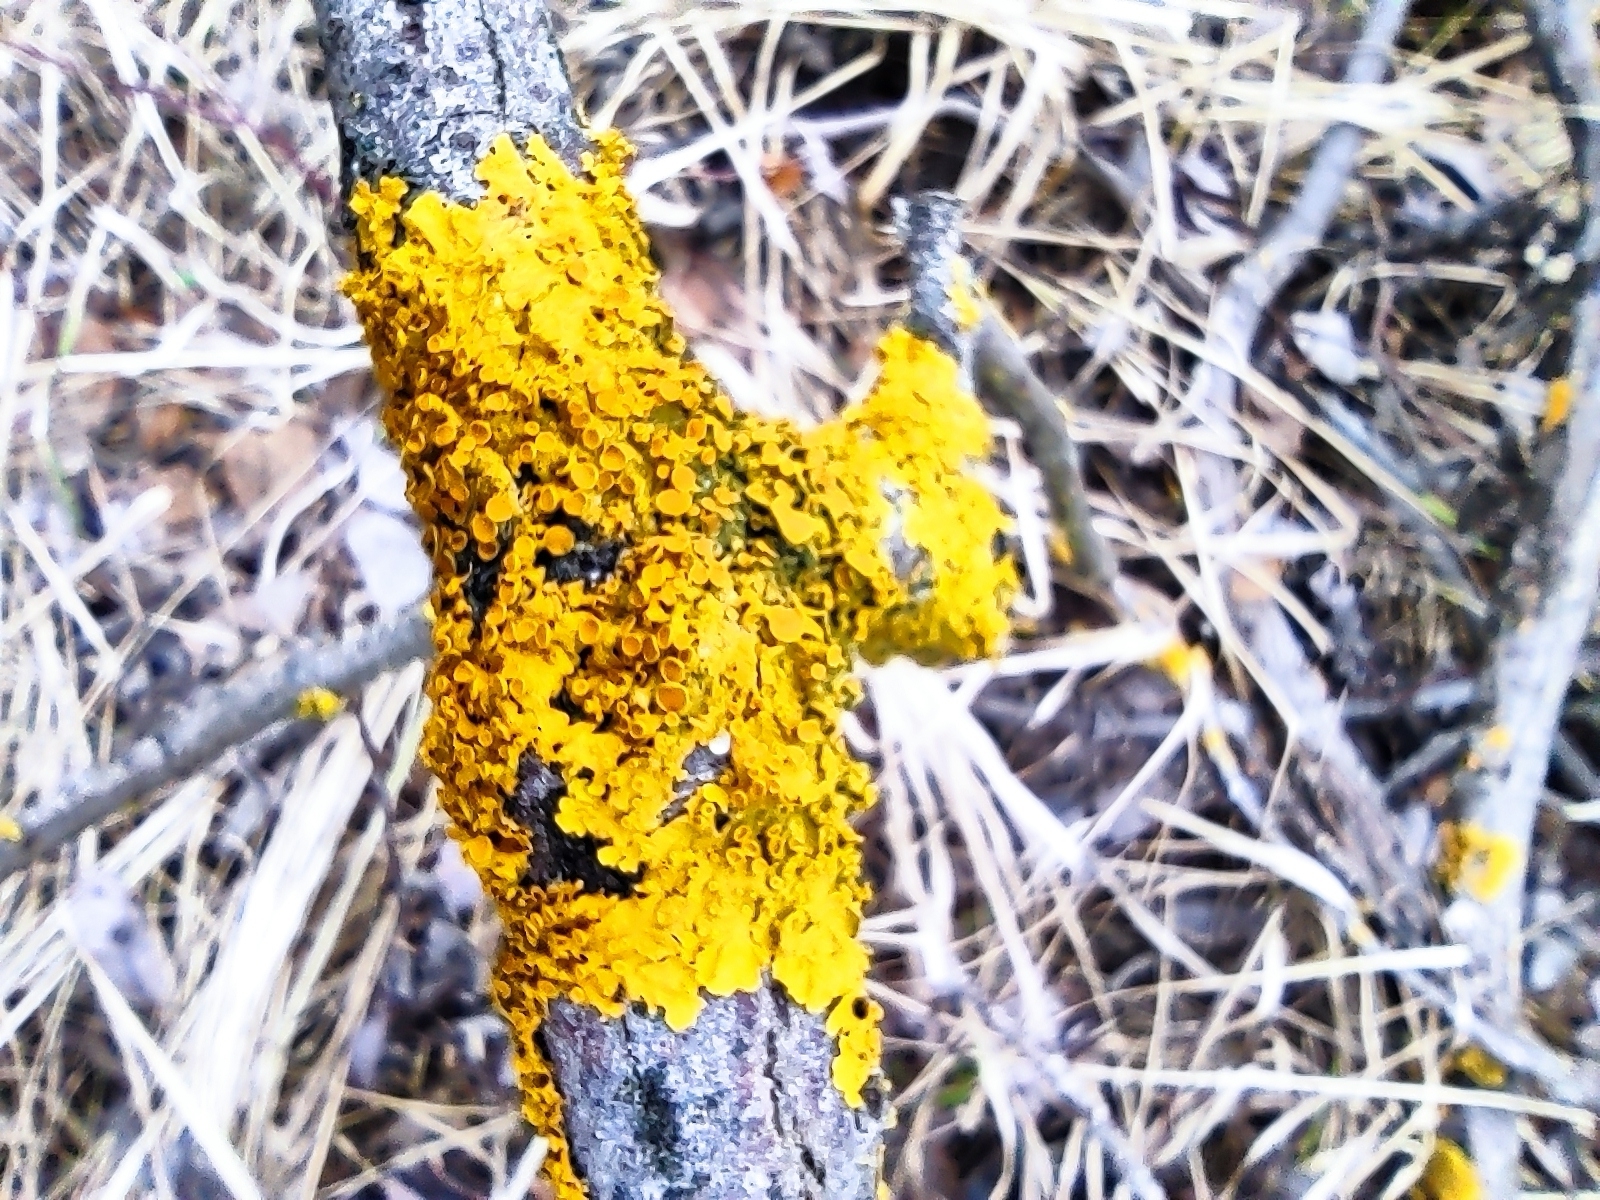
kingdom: Fungi
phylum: Ascomycota
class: Lecanoromycetes
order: Teloschistales
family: Teloschistaceae
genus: Xanthoria
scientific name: Xanthoria parietina
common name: Common orange lichen
